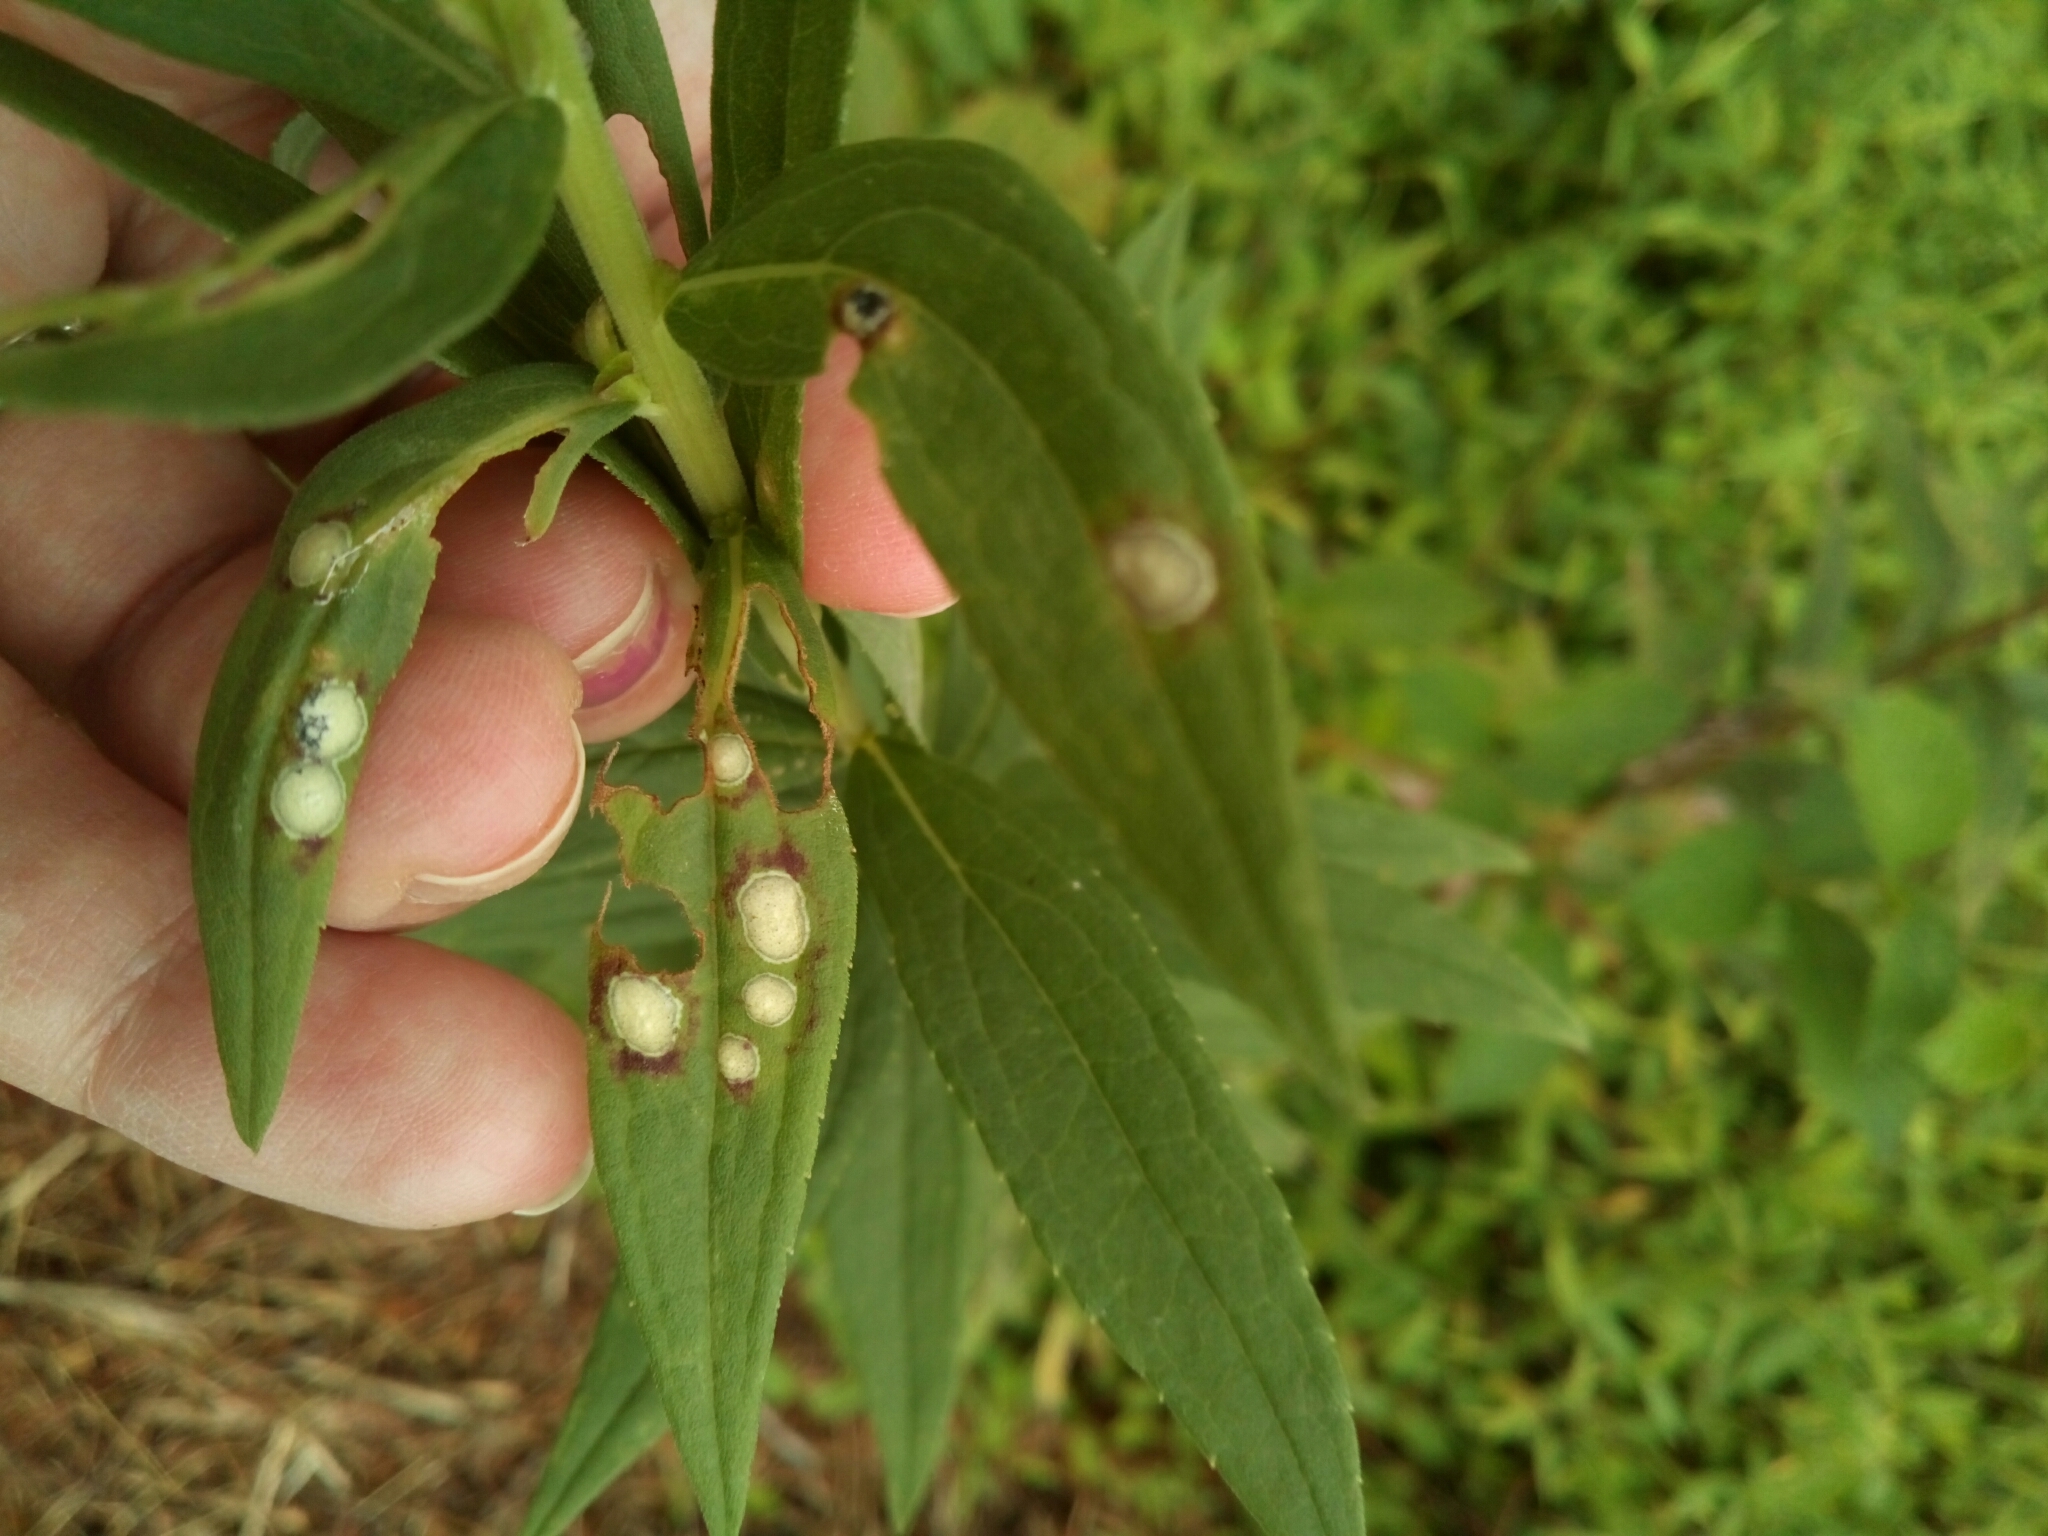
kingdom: Animalia
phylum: Arthropoda
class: Insecta
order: Diptera
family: Cecidomyiidae
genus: Asteromyia
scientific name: Asteromyia carbonifera
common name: Carbonifera goldenrod gall midge
